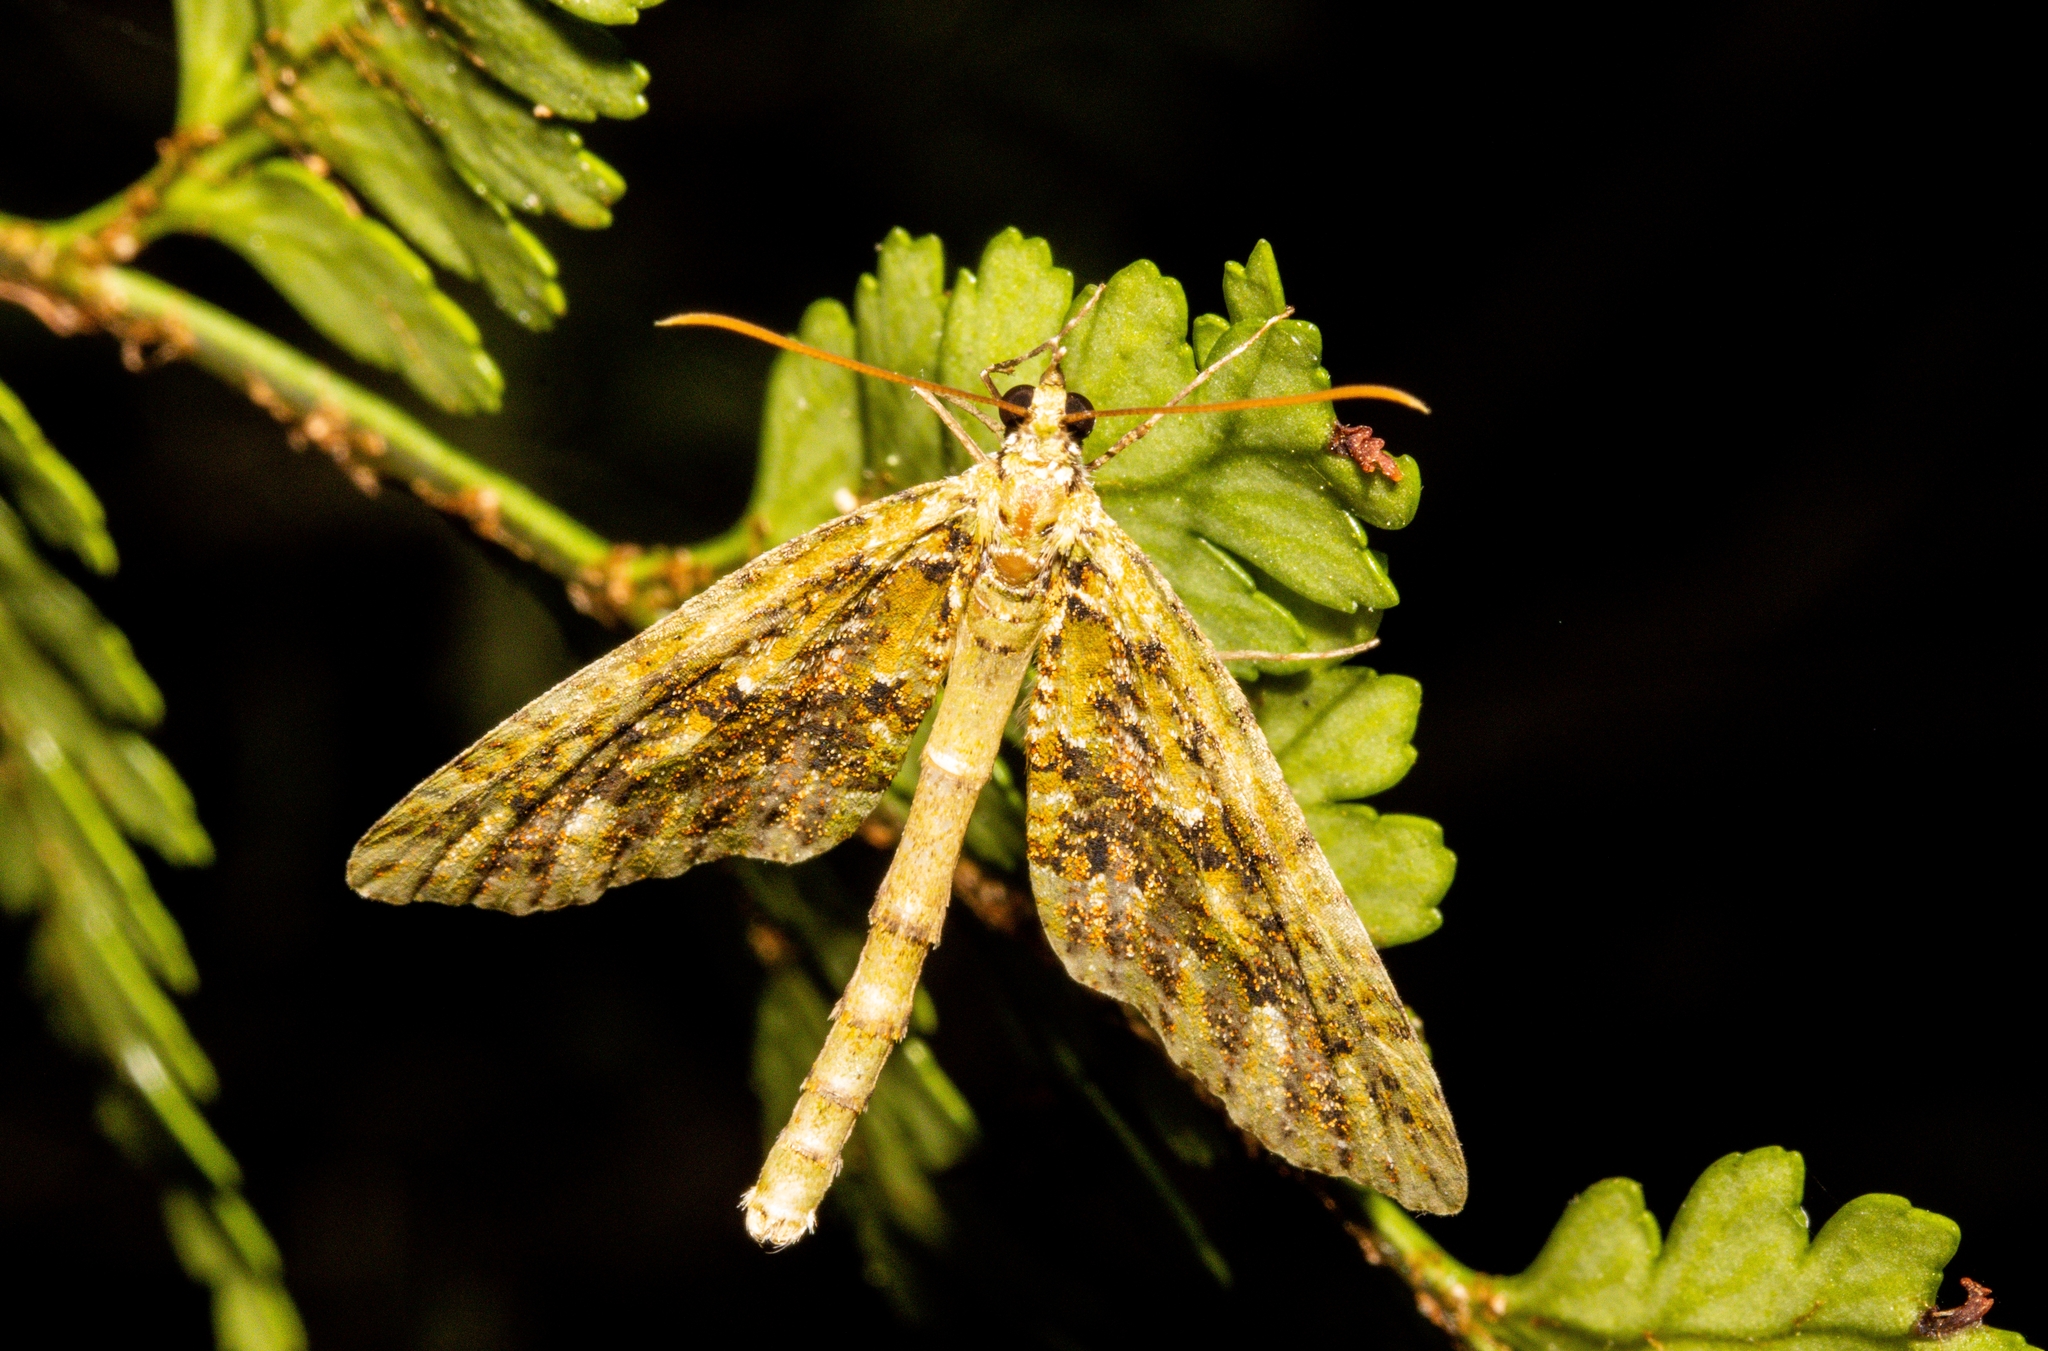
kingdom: Animalia
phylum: Arthropoda
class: Insecta
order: Lepidoptera
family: Geometridae
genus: Tatosoma
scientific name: Tatosoma tipulata
